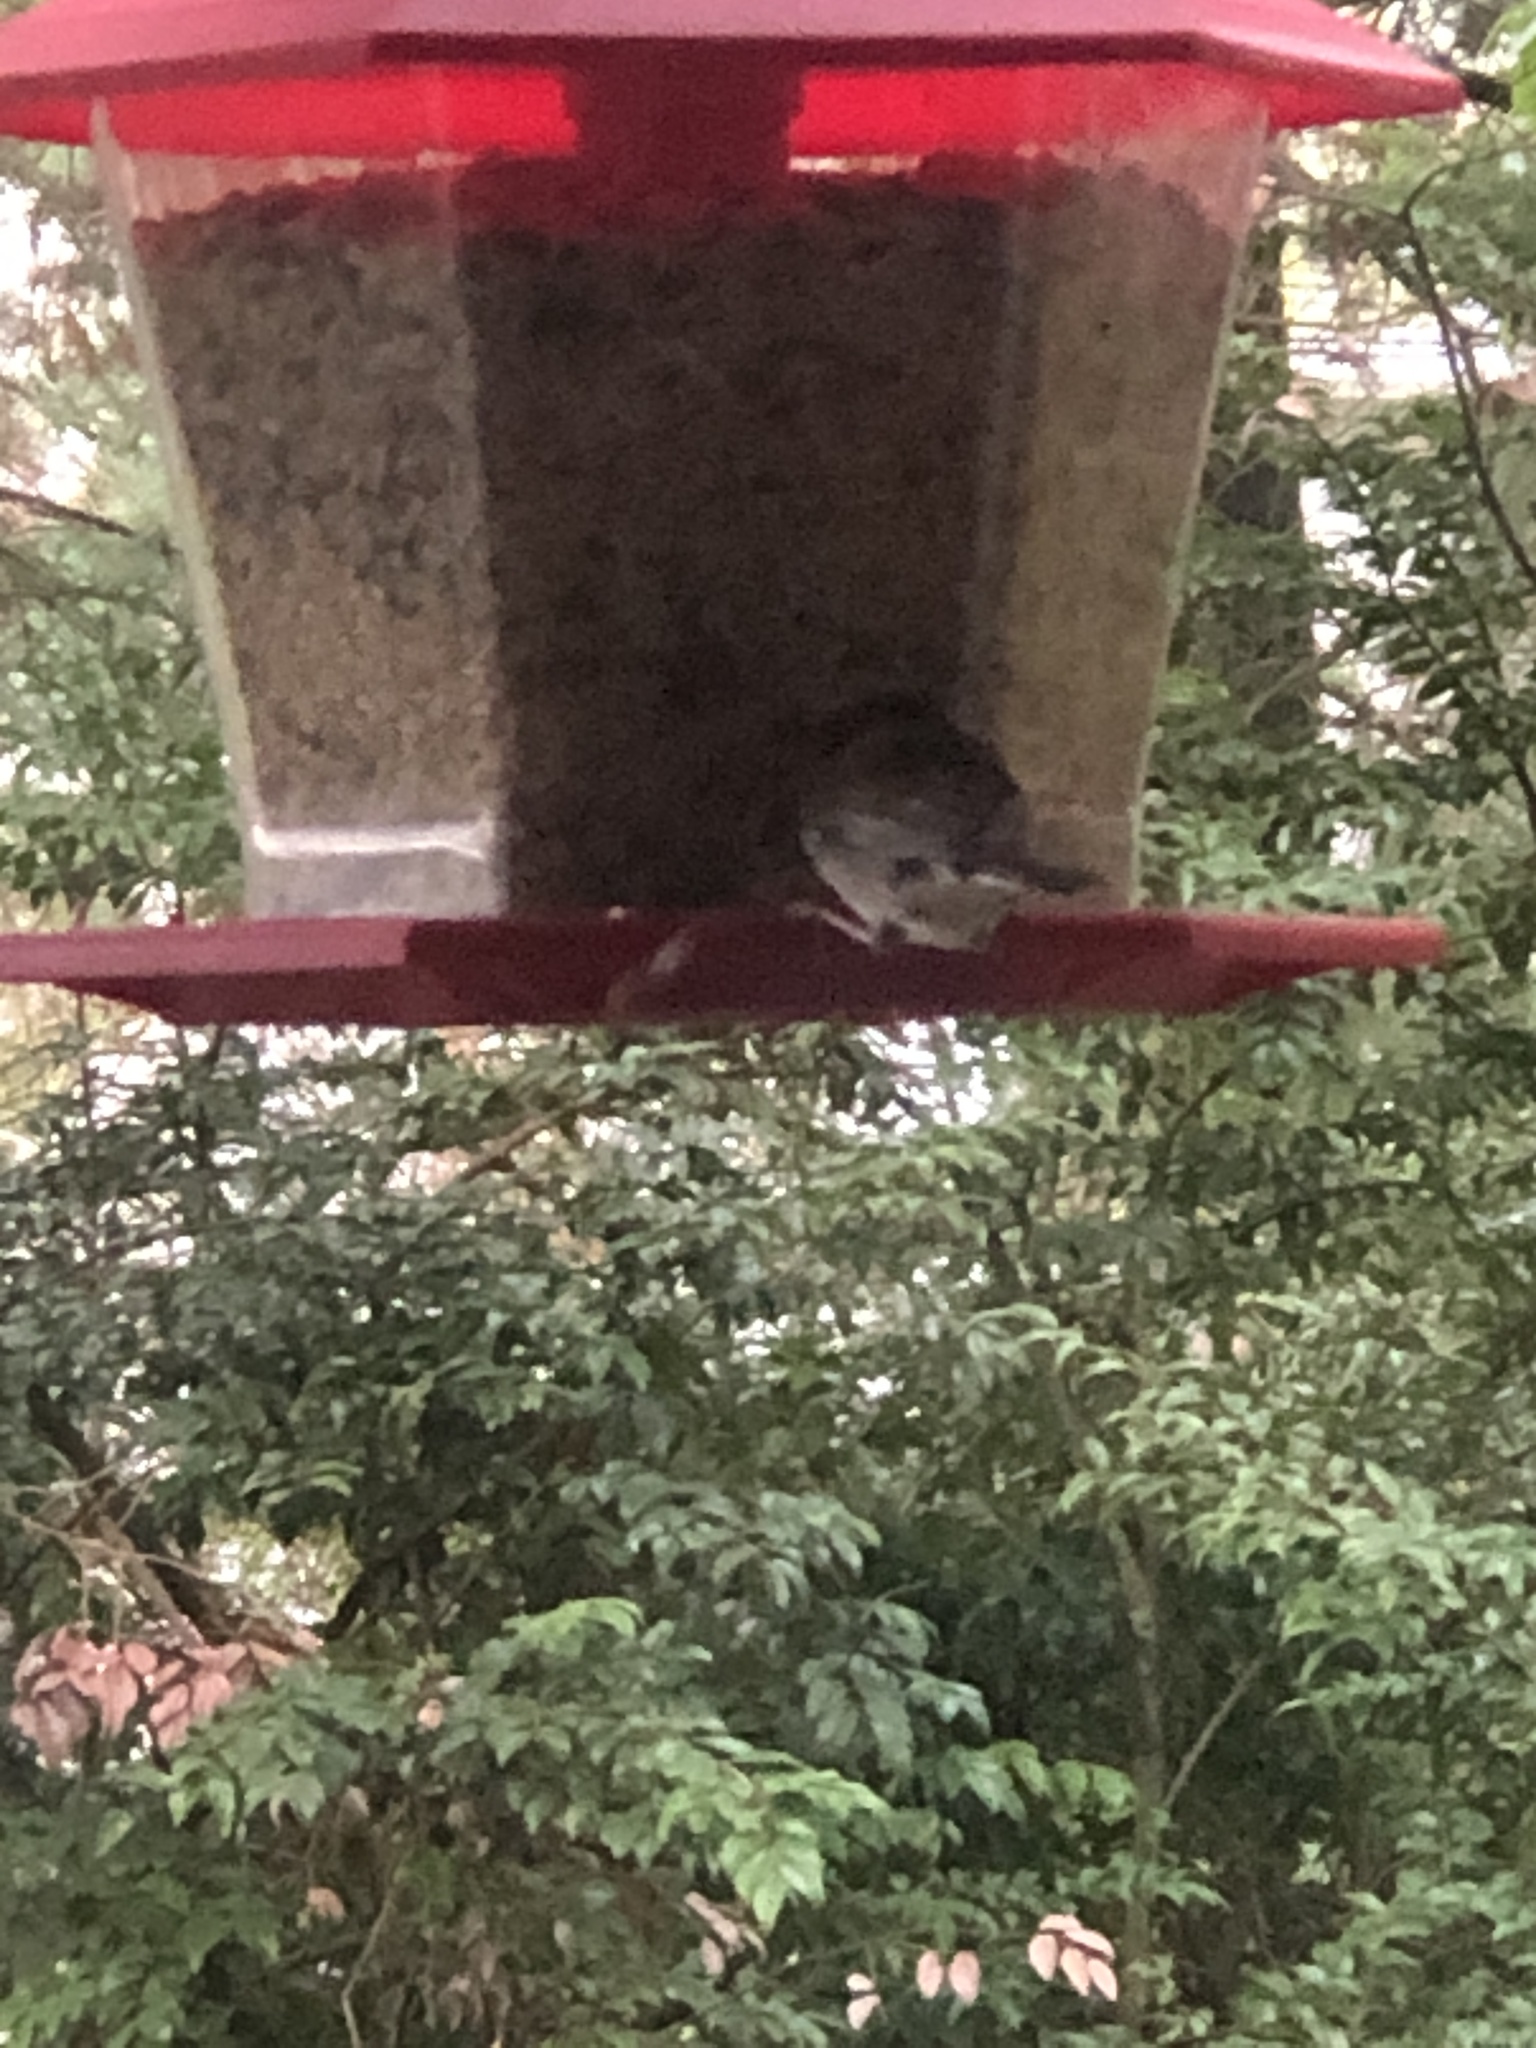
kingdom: Animalia
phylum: Chordata
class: Aves
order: Passeriformes
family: Passerellidae
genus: Junco
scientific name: Junco hyemalis
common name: Dark-eyed junco
